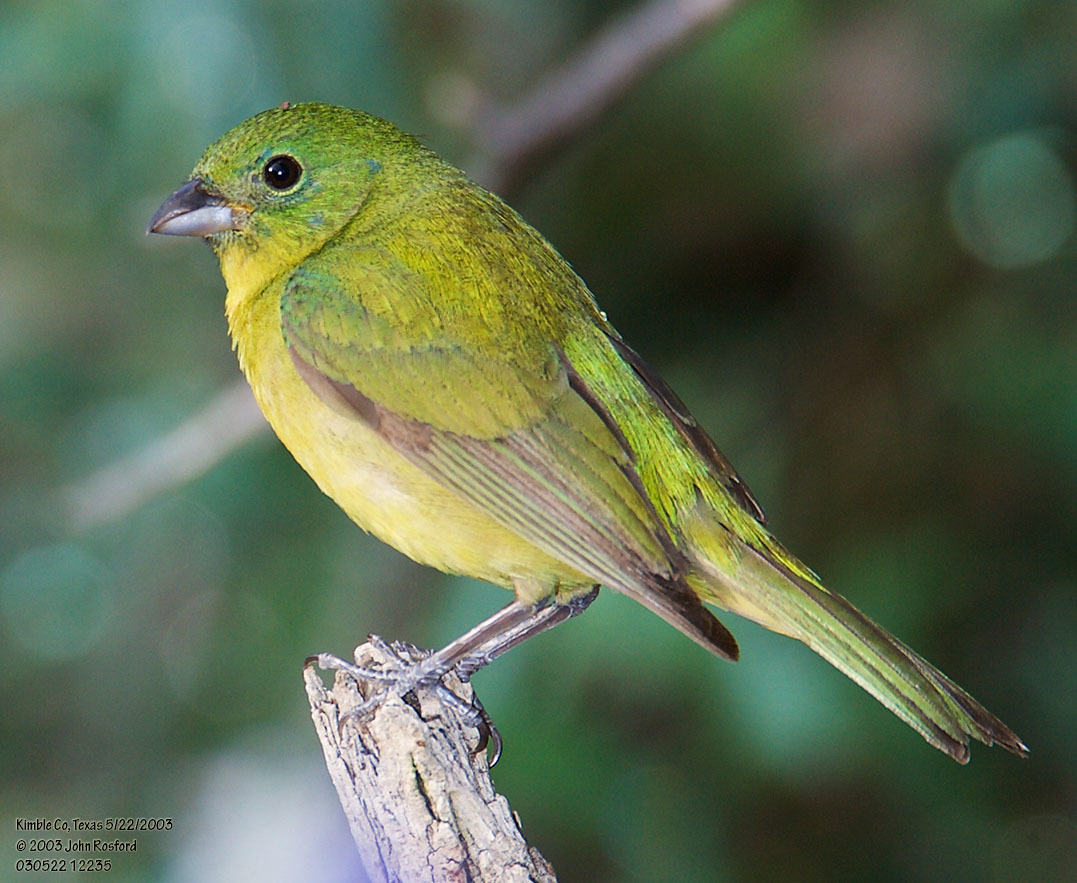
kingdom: Animalia
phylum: Chordata
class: Aves
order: Passeriformes
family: Cardinalidae
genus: Passerina
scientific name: Passerina ciris
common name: Painted bunting
